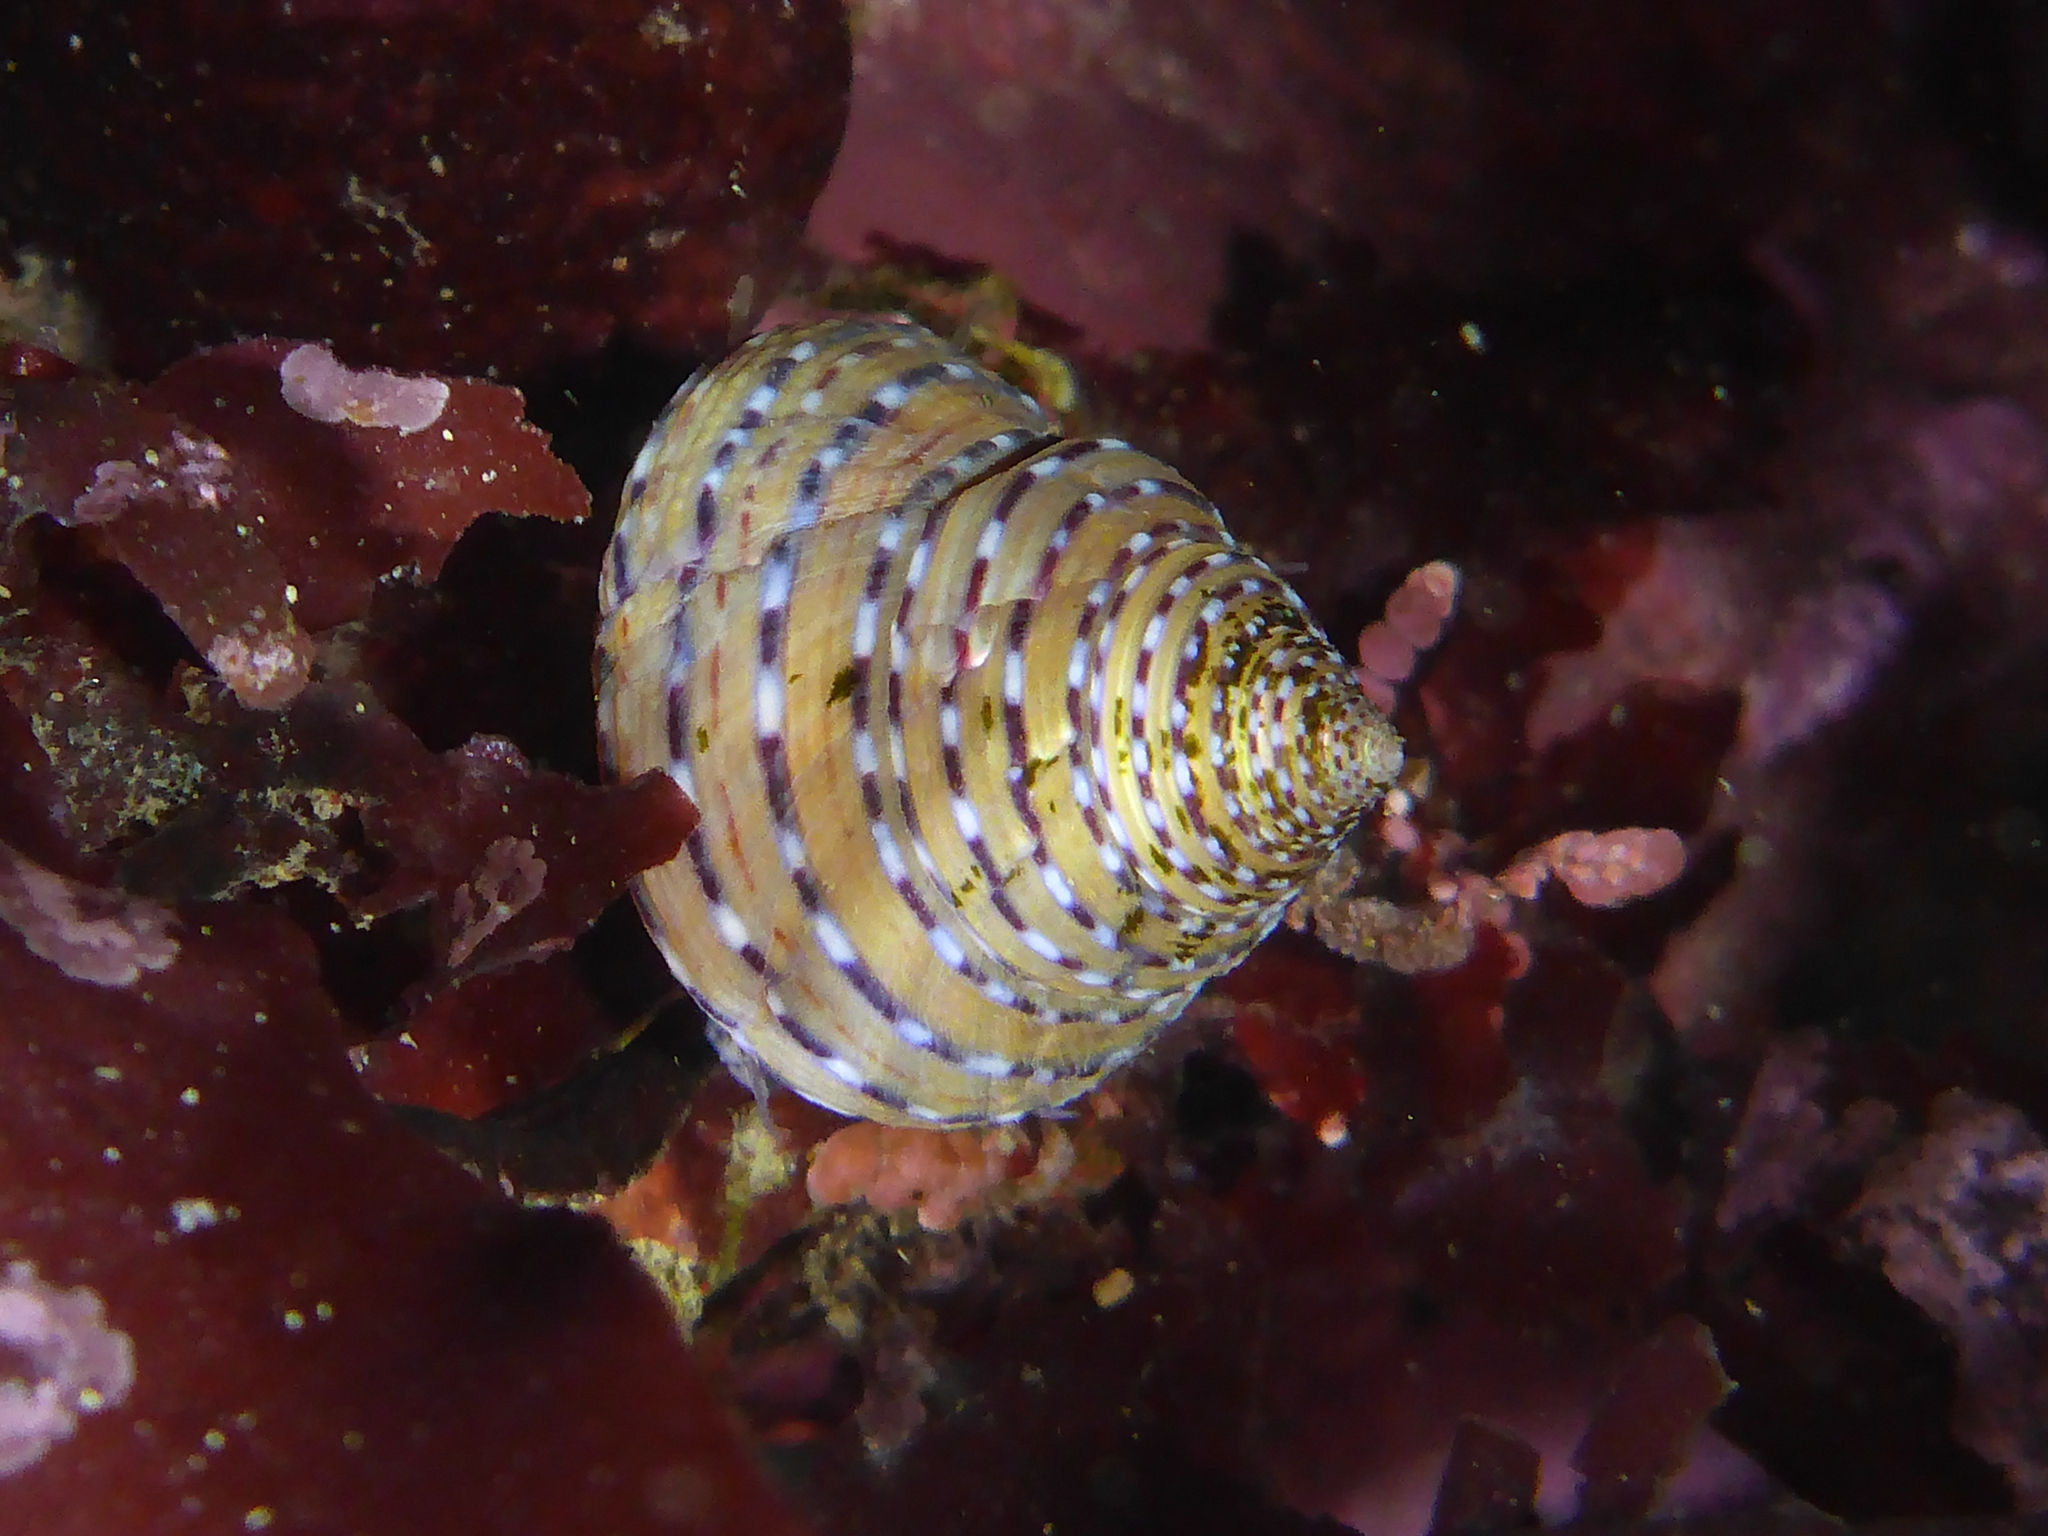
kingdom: Animalia
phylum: Mollusca
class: Gastropoda
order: Trochida
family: Calliostomatidae
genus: Calliostoma
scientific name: Calliostoma tricolor
